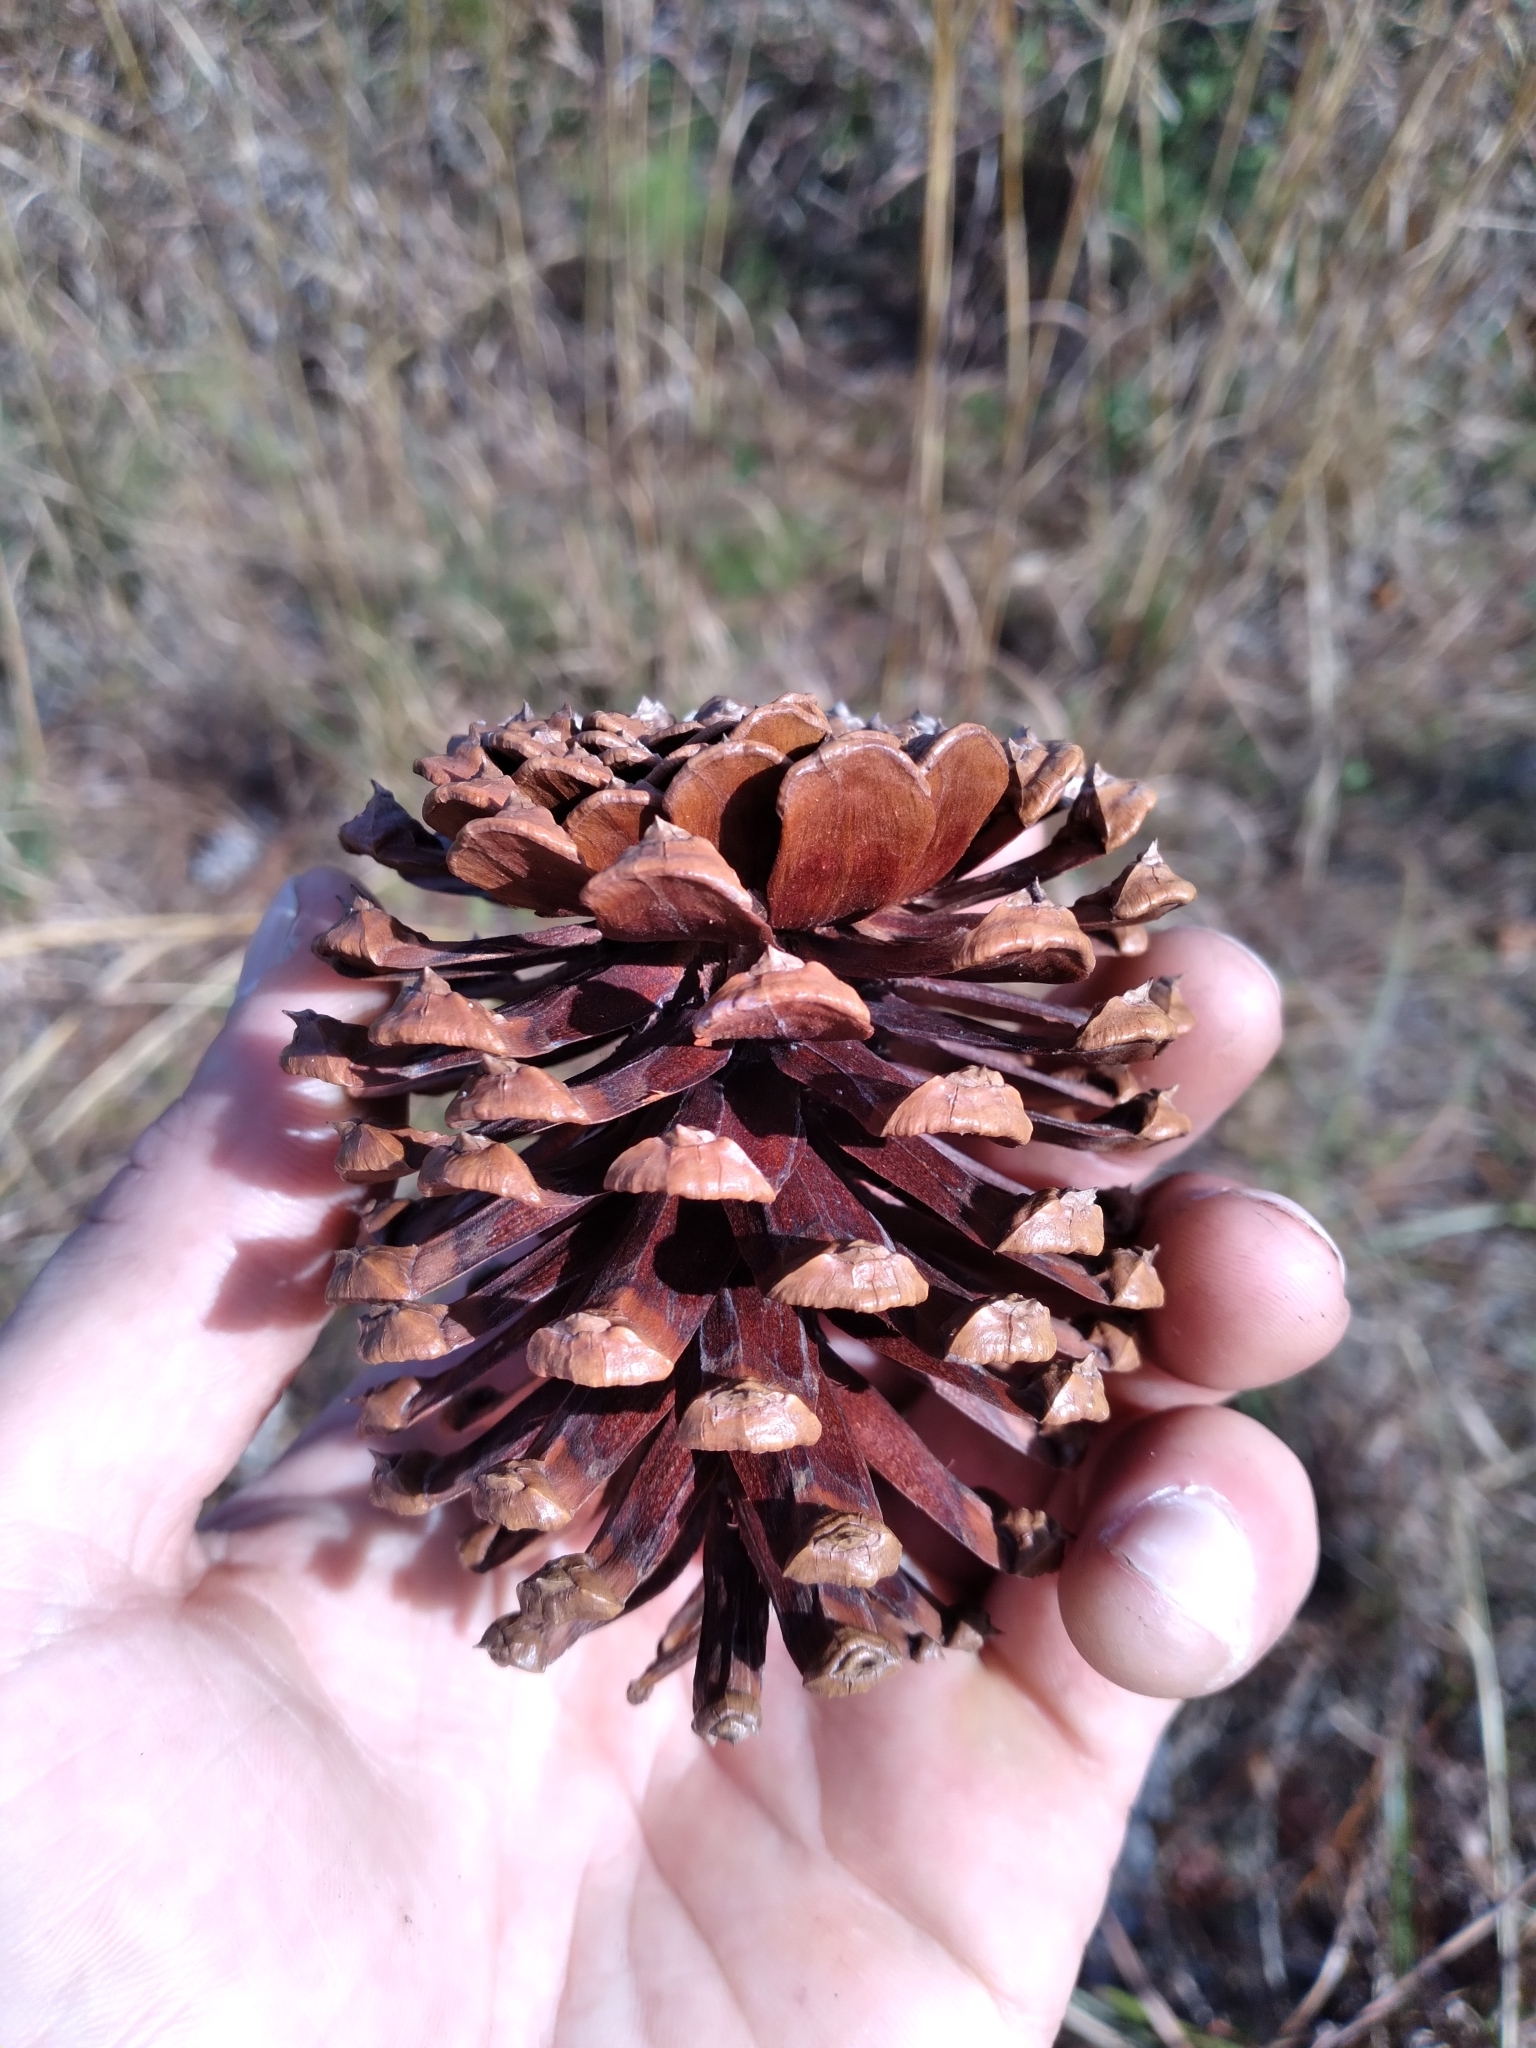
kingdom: Plantae
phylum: Tracheophyta
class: Pinopsida
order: Pinales
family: Pinaceae
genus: Pinus
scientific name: Pinus elliottii
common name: Slash pine
